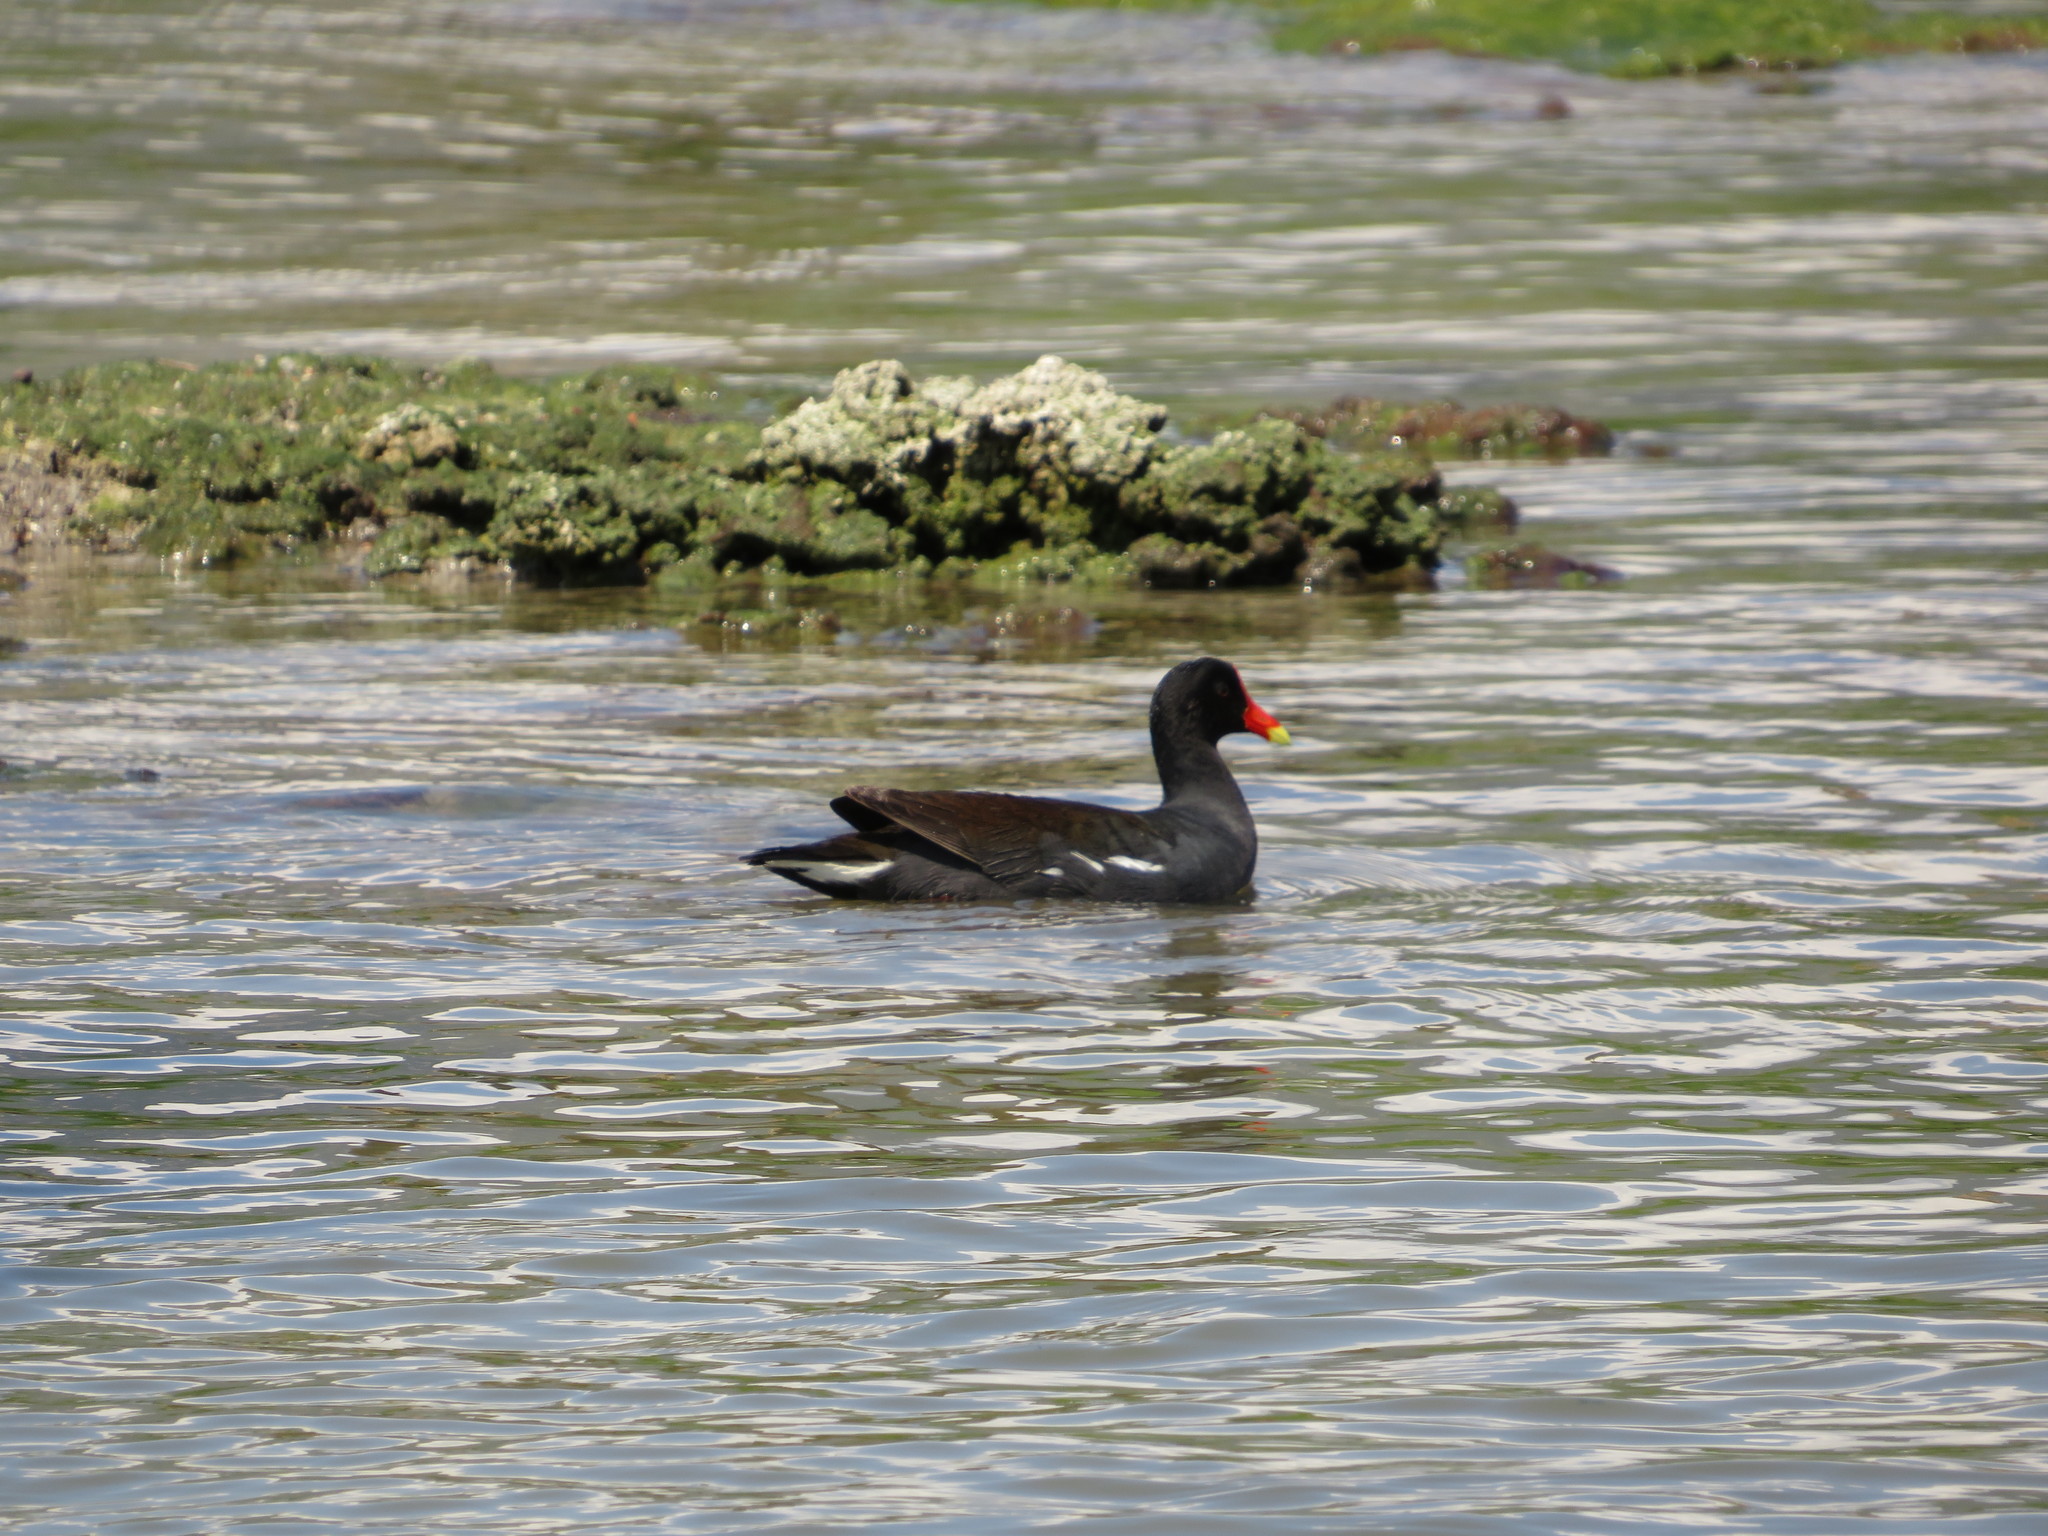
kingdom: Animalia
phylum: Chordata
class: Aves
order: Gruiformes
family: Rallidae
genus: Gallinula
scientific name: Gallinula chloropus
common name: Common moorhen
